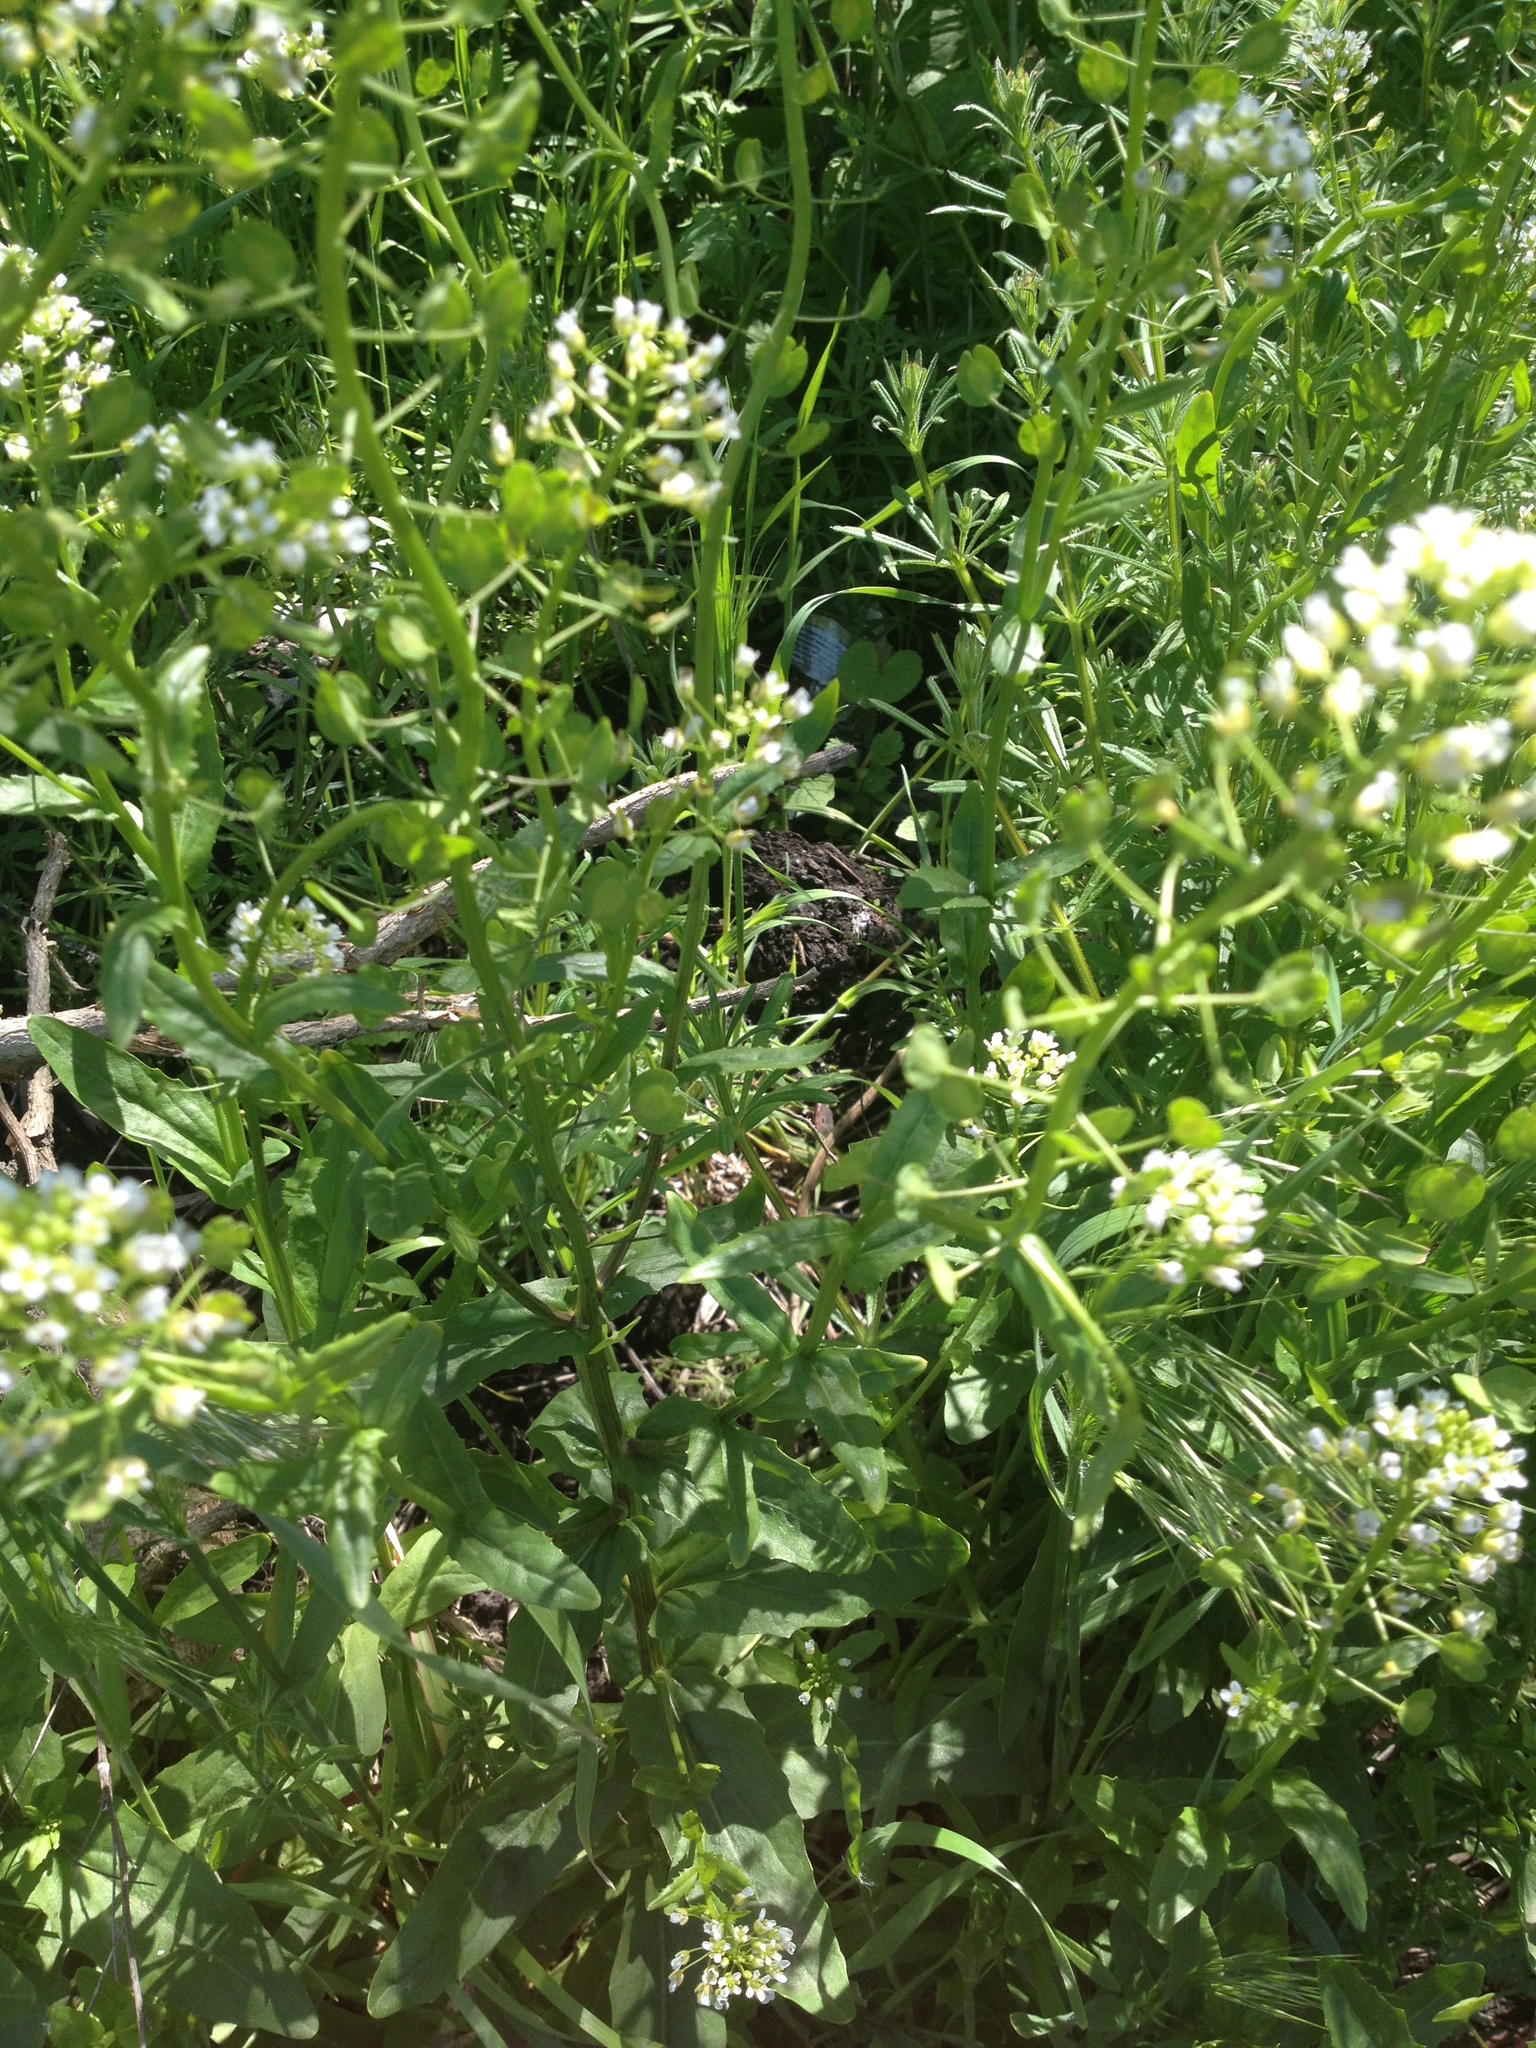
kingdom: Plantae
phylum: Tracheophyta
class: Magnoliopsida
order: Brassicales
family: Brassicaceae
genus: Thlaspi
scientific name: Thlaspi arvense
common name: Field pennycress
